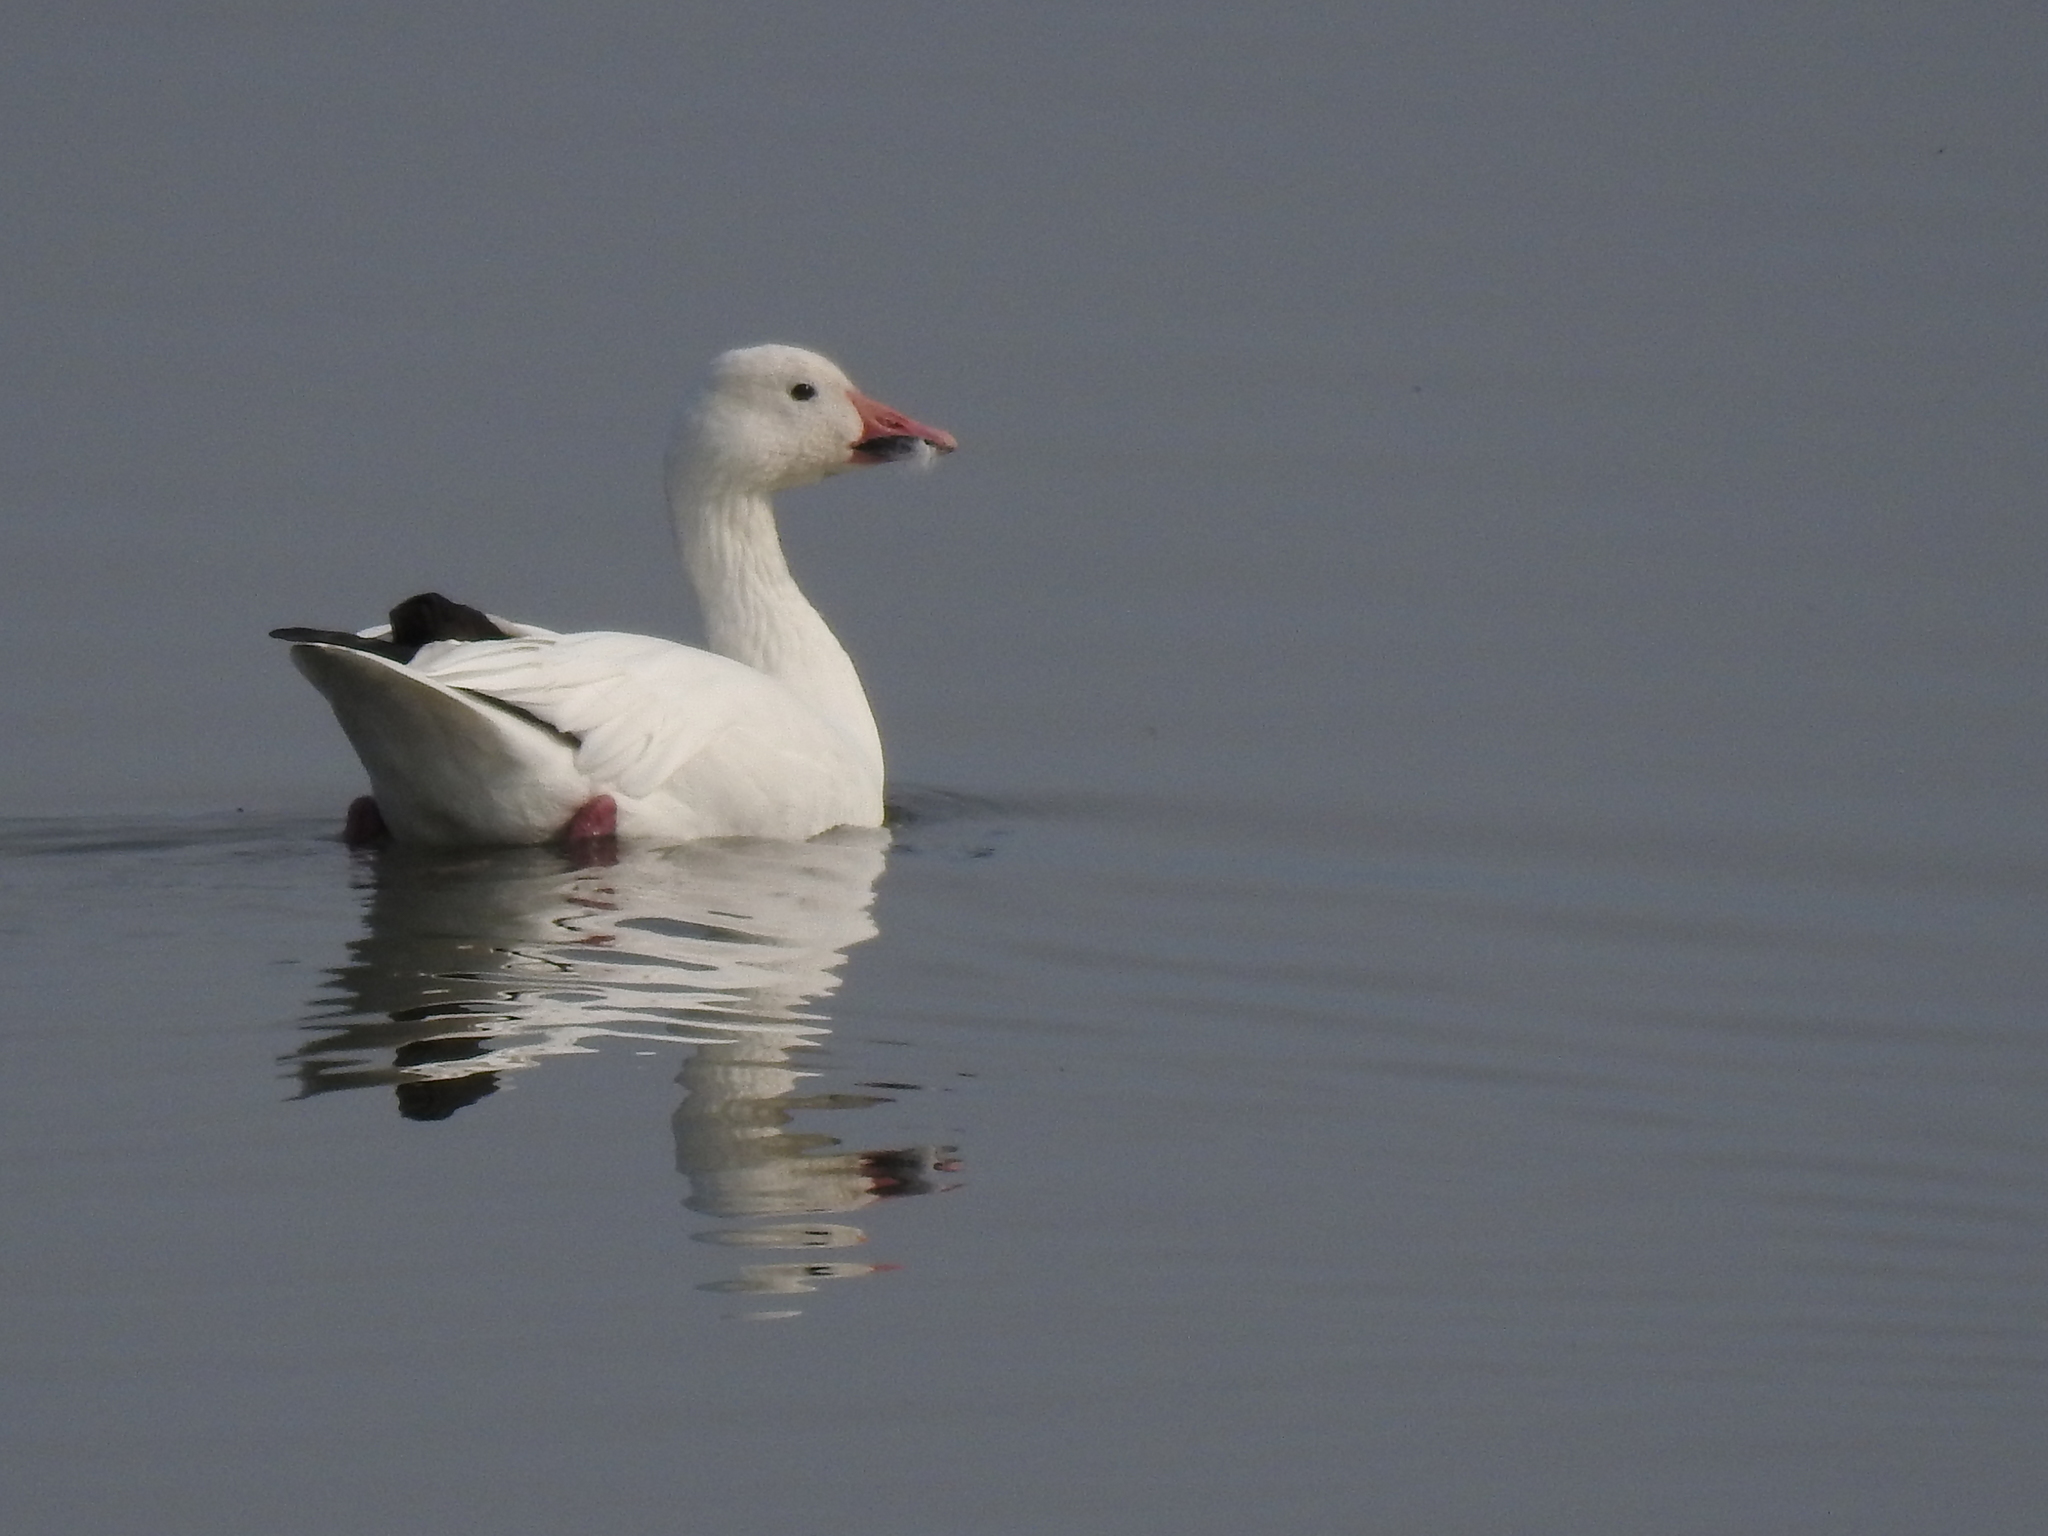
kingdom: Animalia
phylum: Chordata
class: Aves
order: Anseriformes
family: Anatidae
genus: Anser
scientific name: Anser caerulescens
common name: Snow goose
